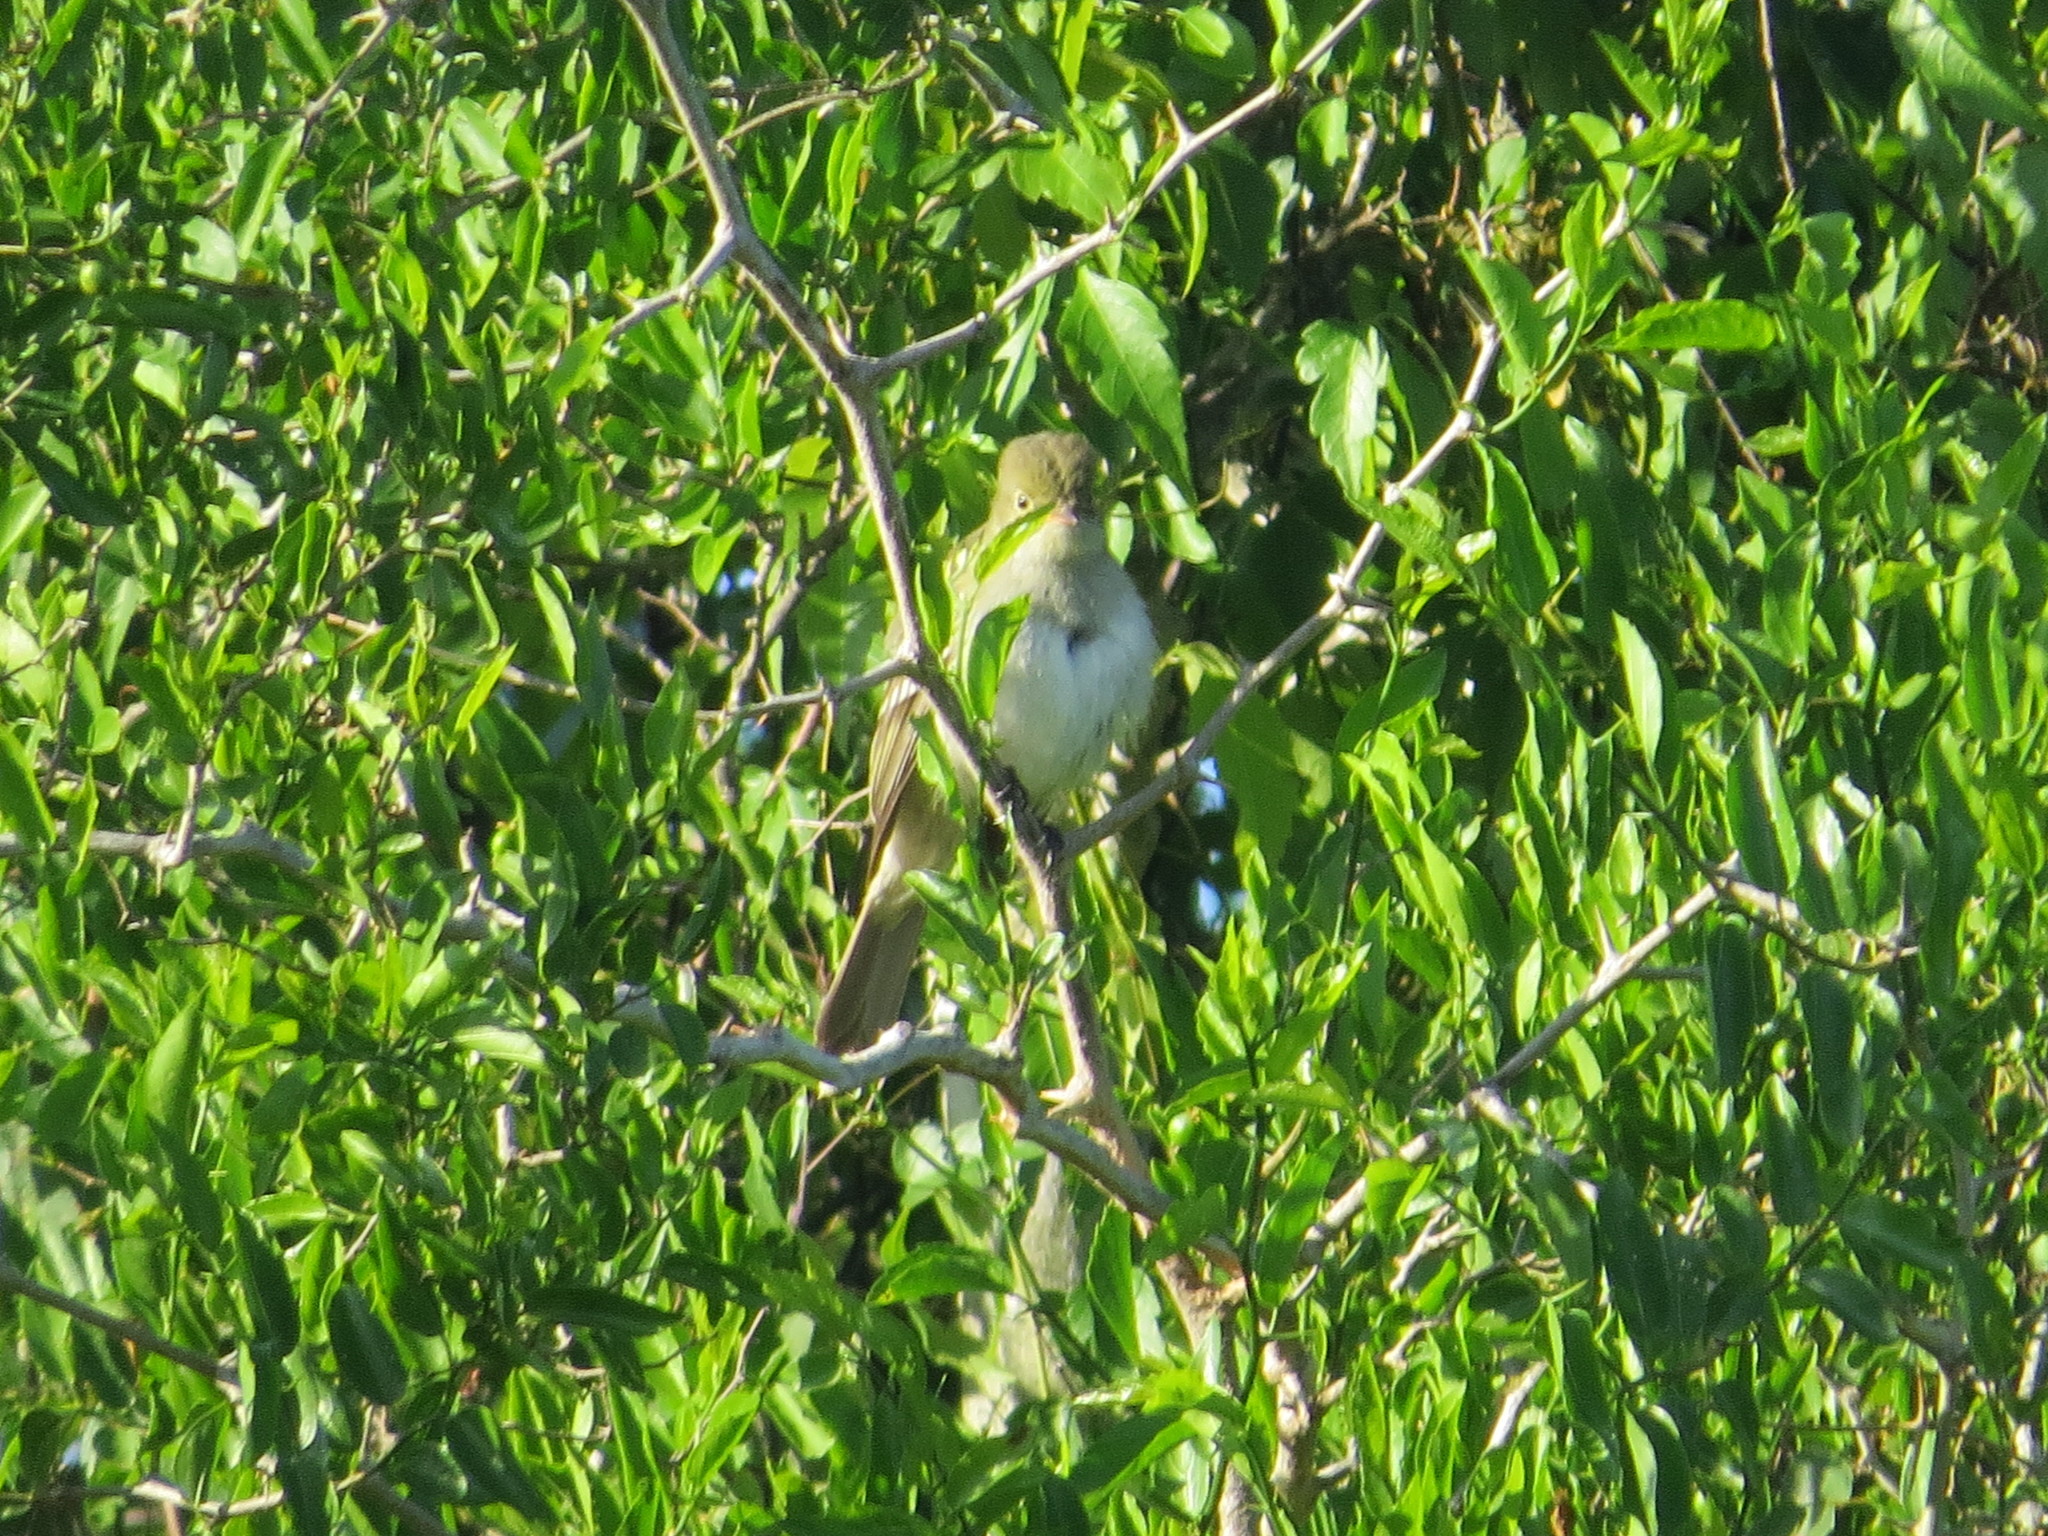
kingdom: Animalia
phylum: Chordata
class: Aves
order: Passeriformes
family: Tyrannidae
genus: Elaenia
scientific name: Elaenia parvirostris
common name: Small-billed elaenia
